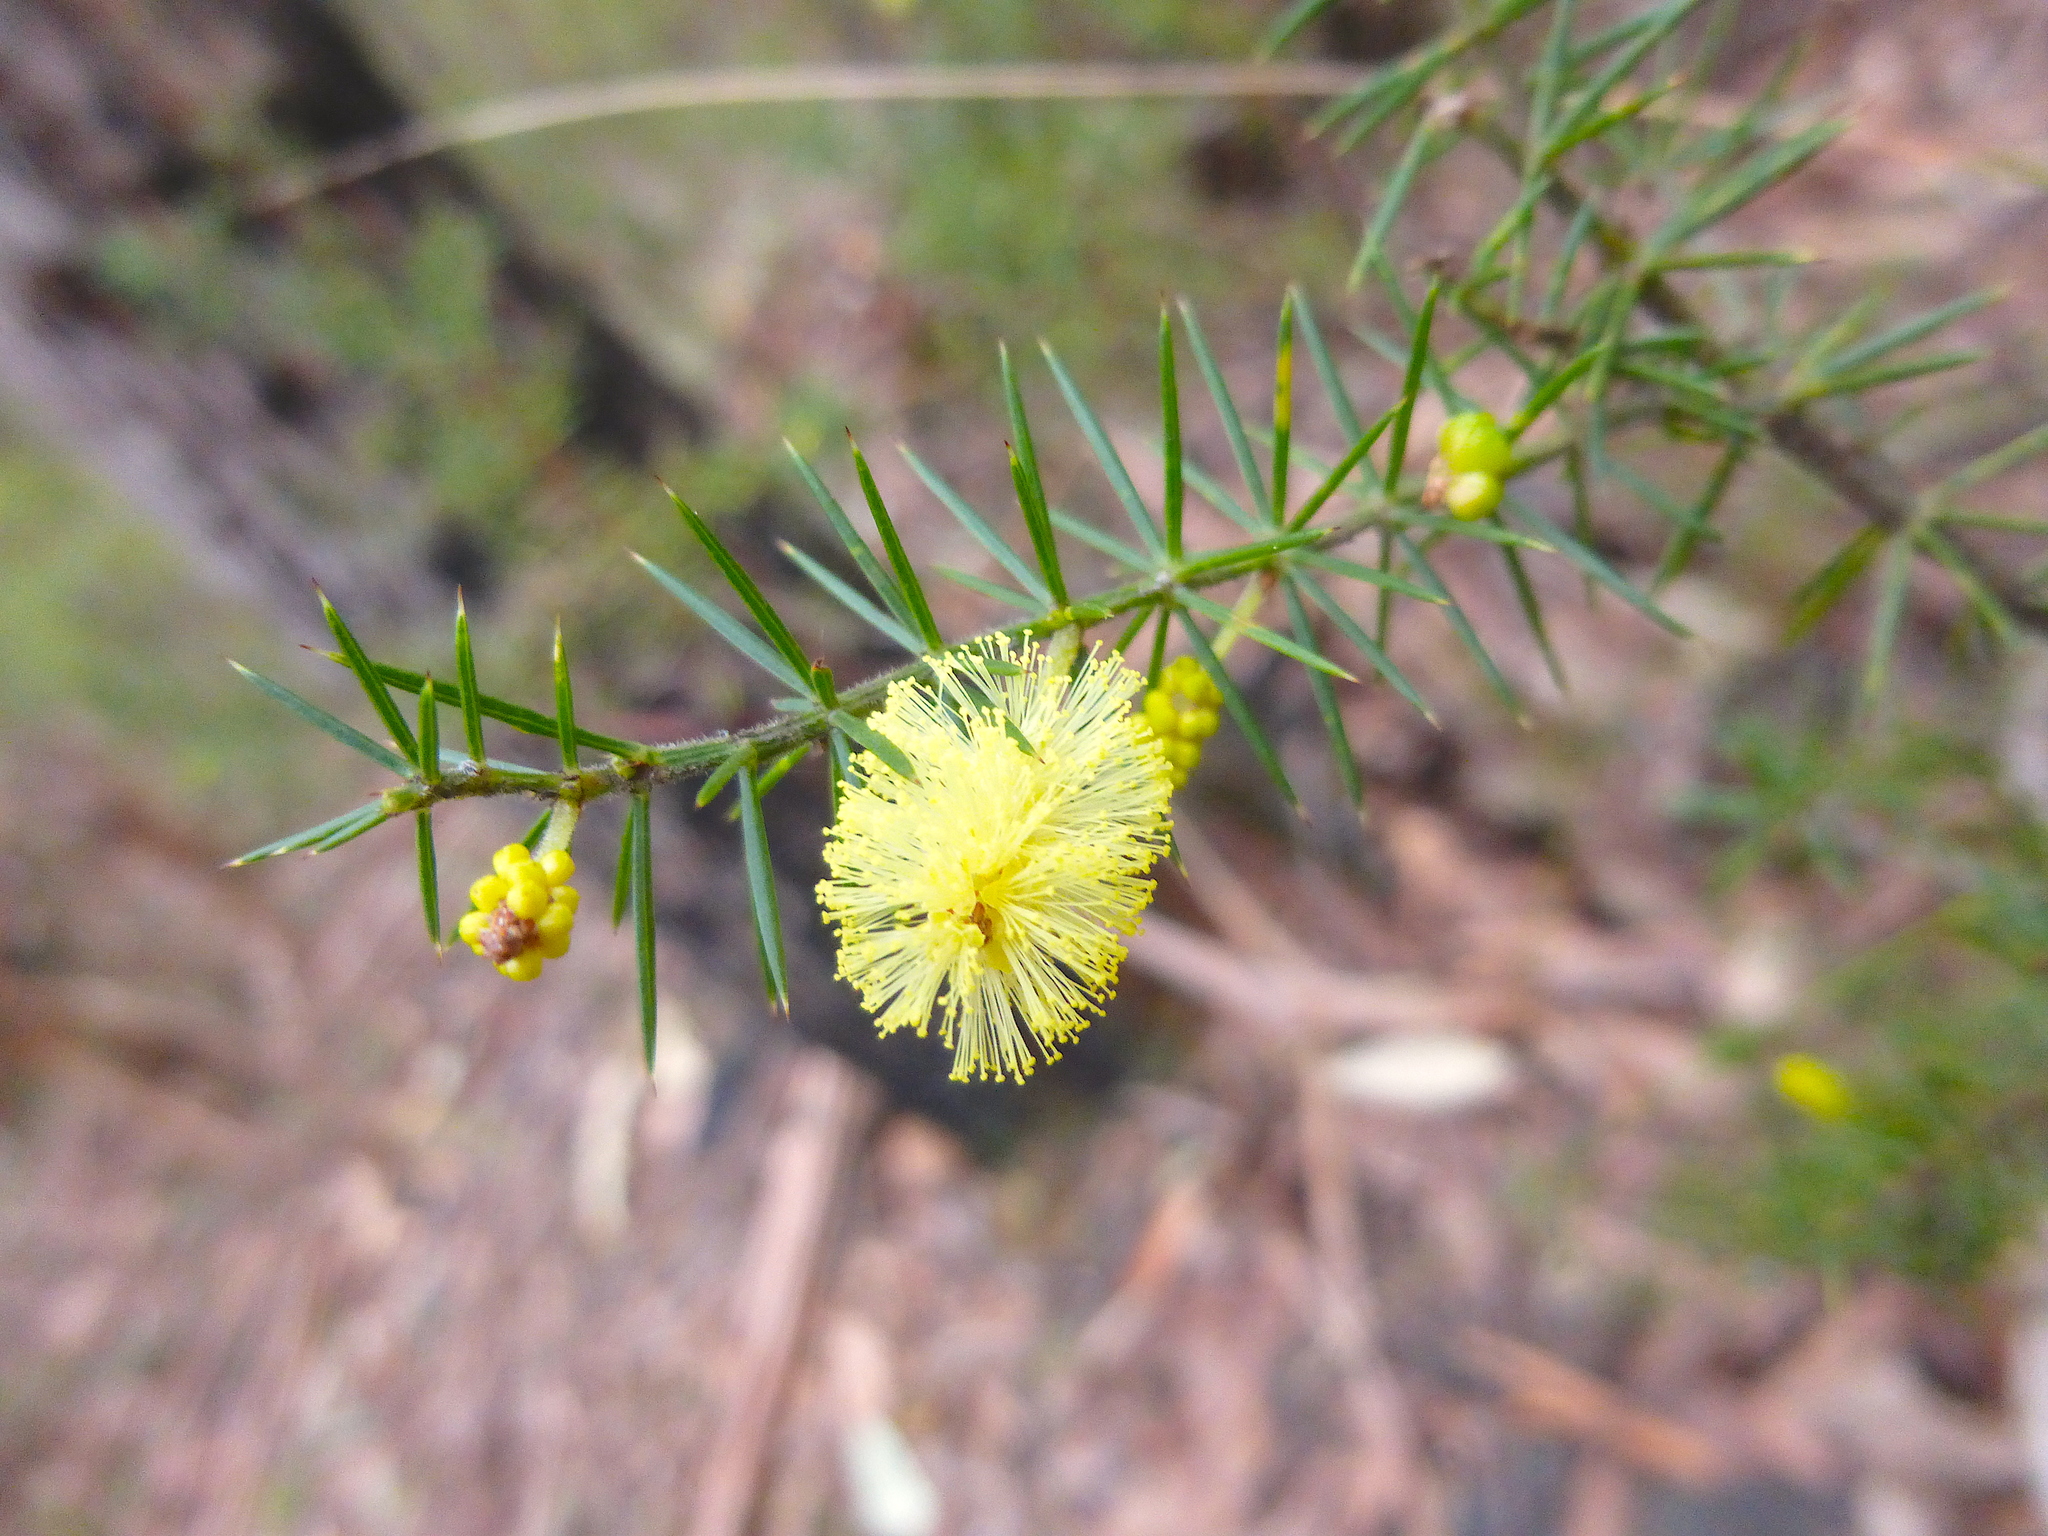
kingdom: Plantae
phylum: Tracheophyta
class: Magnoliopsida
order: Fabales
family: Fabaceae
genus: Acacia
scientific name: Acacia verticillata
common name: Prickly moses
